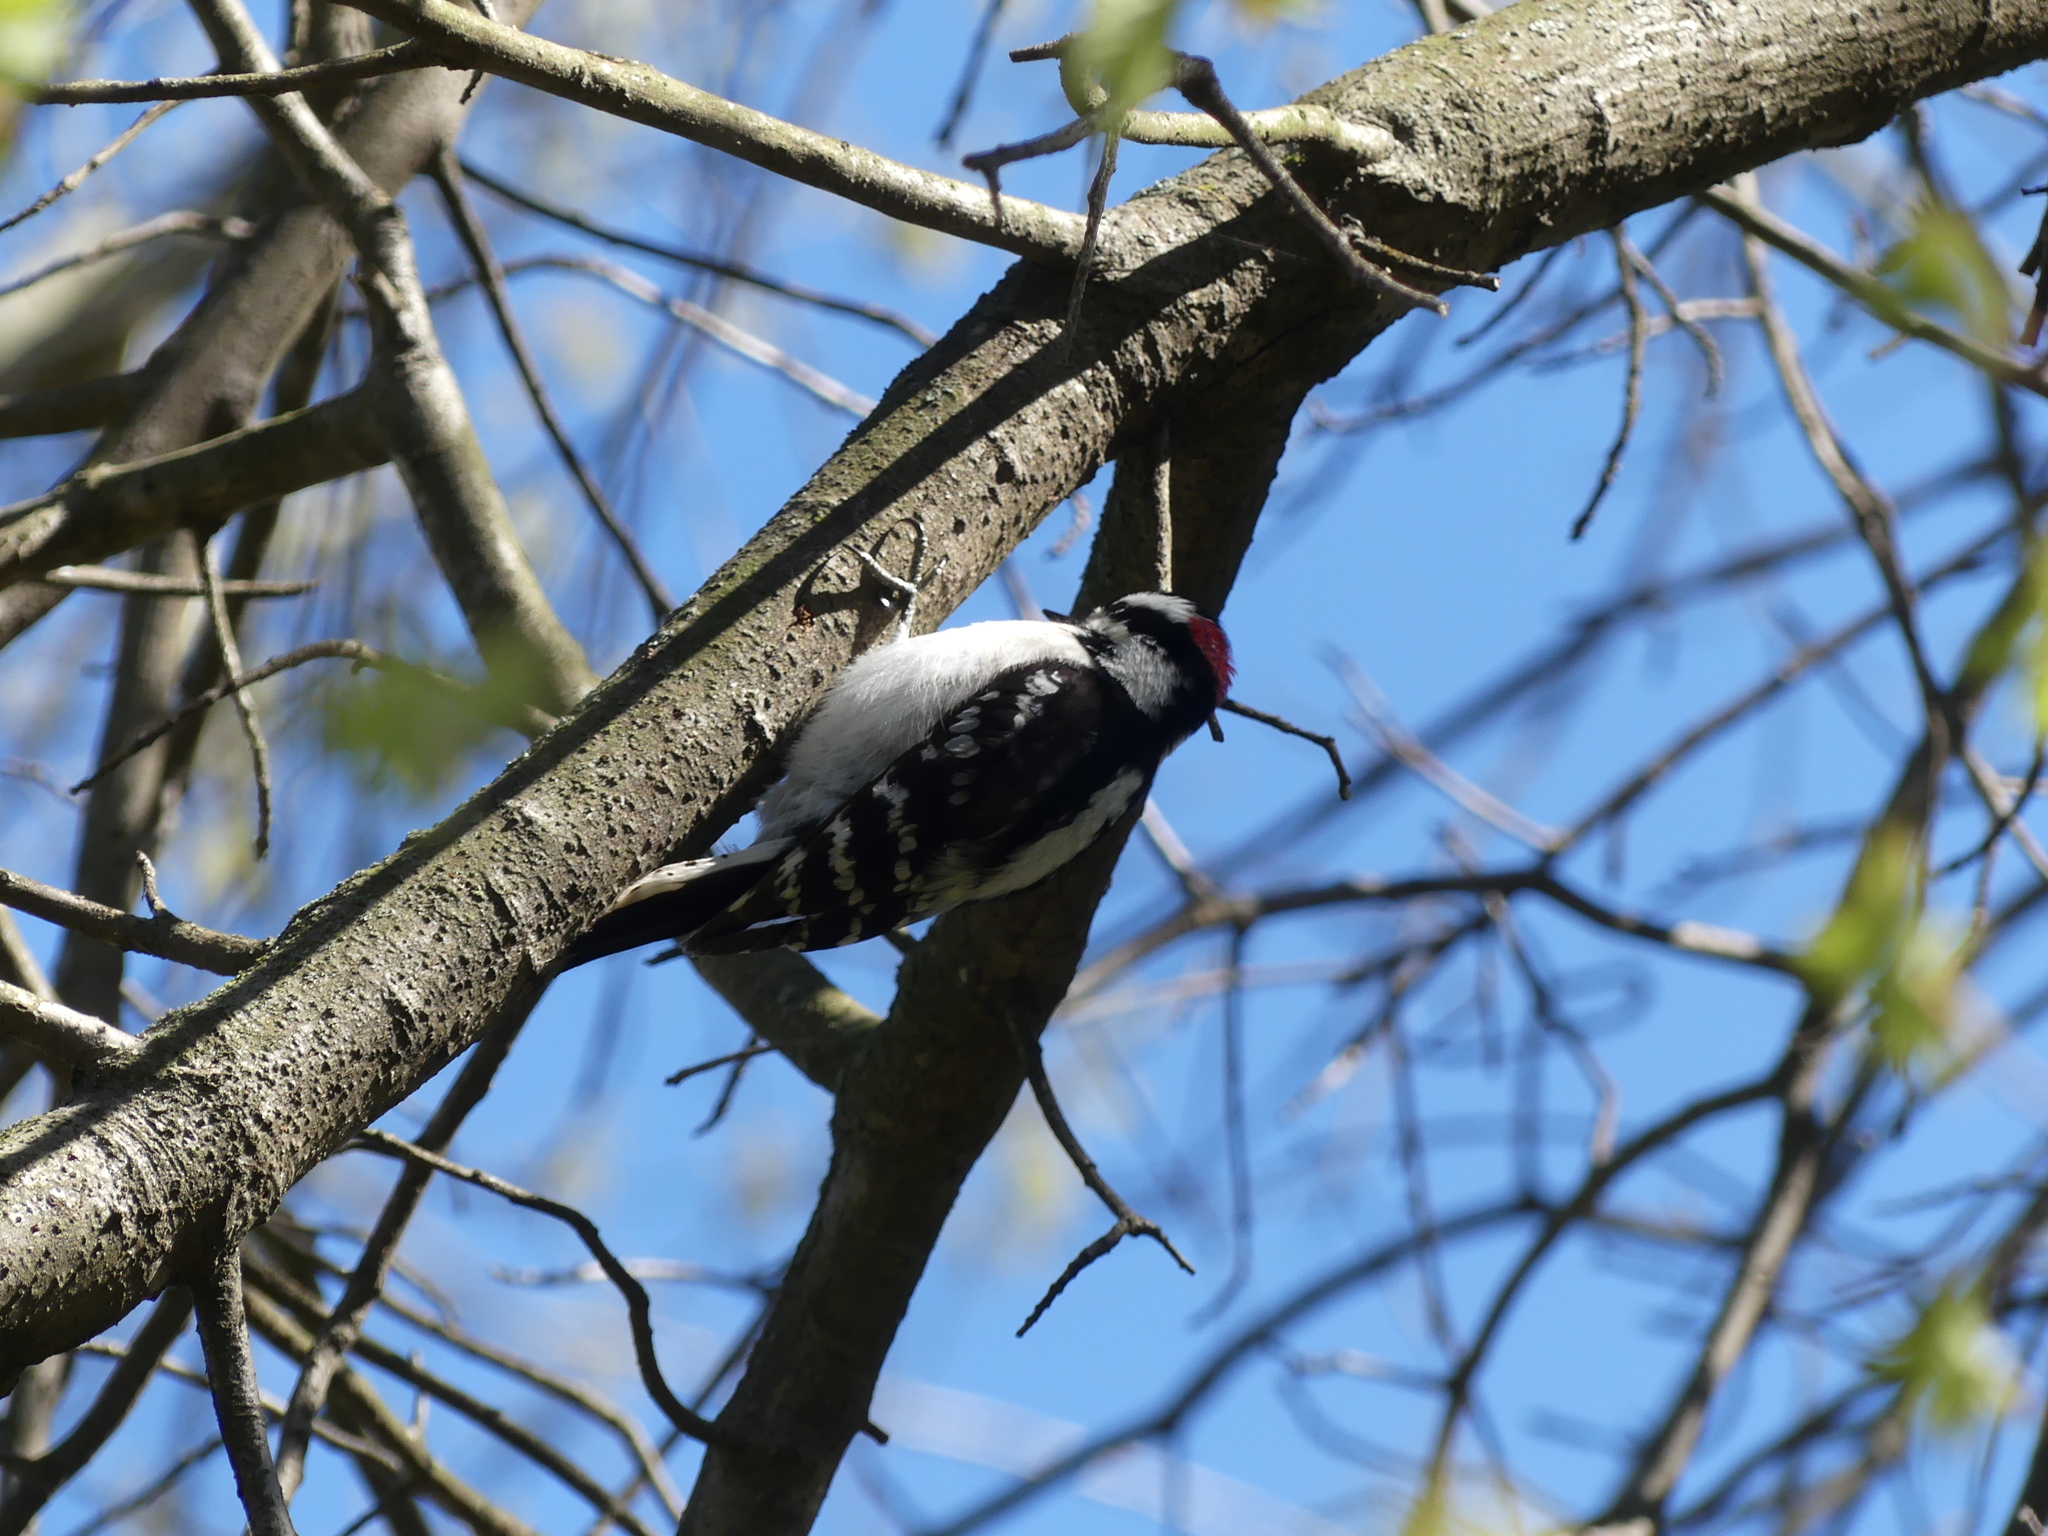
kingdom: Animalia
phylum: Chordata
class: Aves
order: Piciformes
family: Picidae
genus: Dryobates
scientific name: Dryobates pubescens
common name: Downy woodpecker
